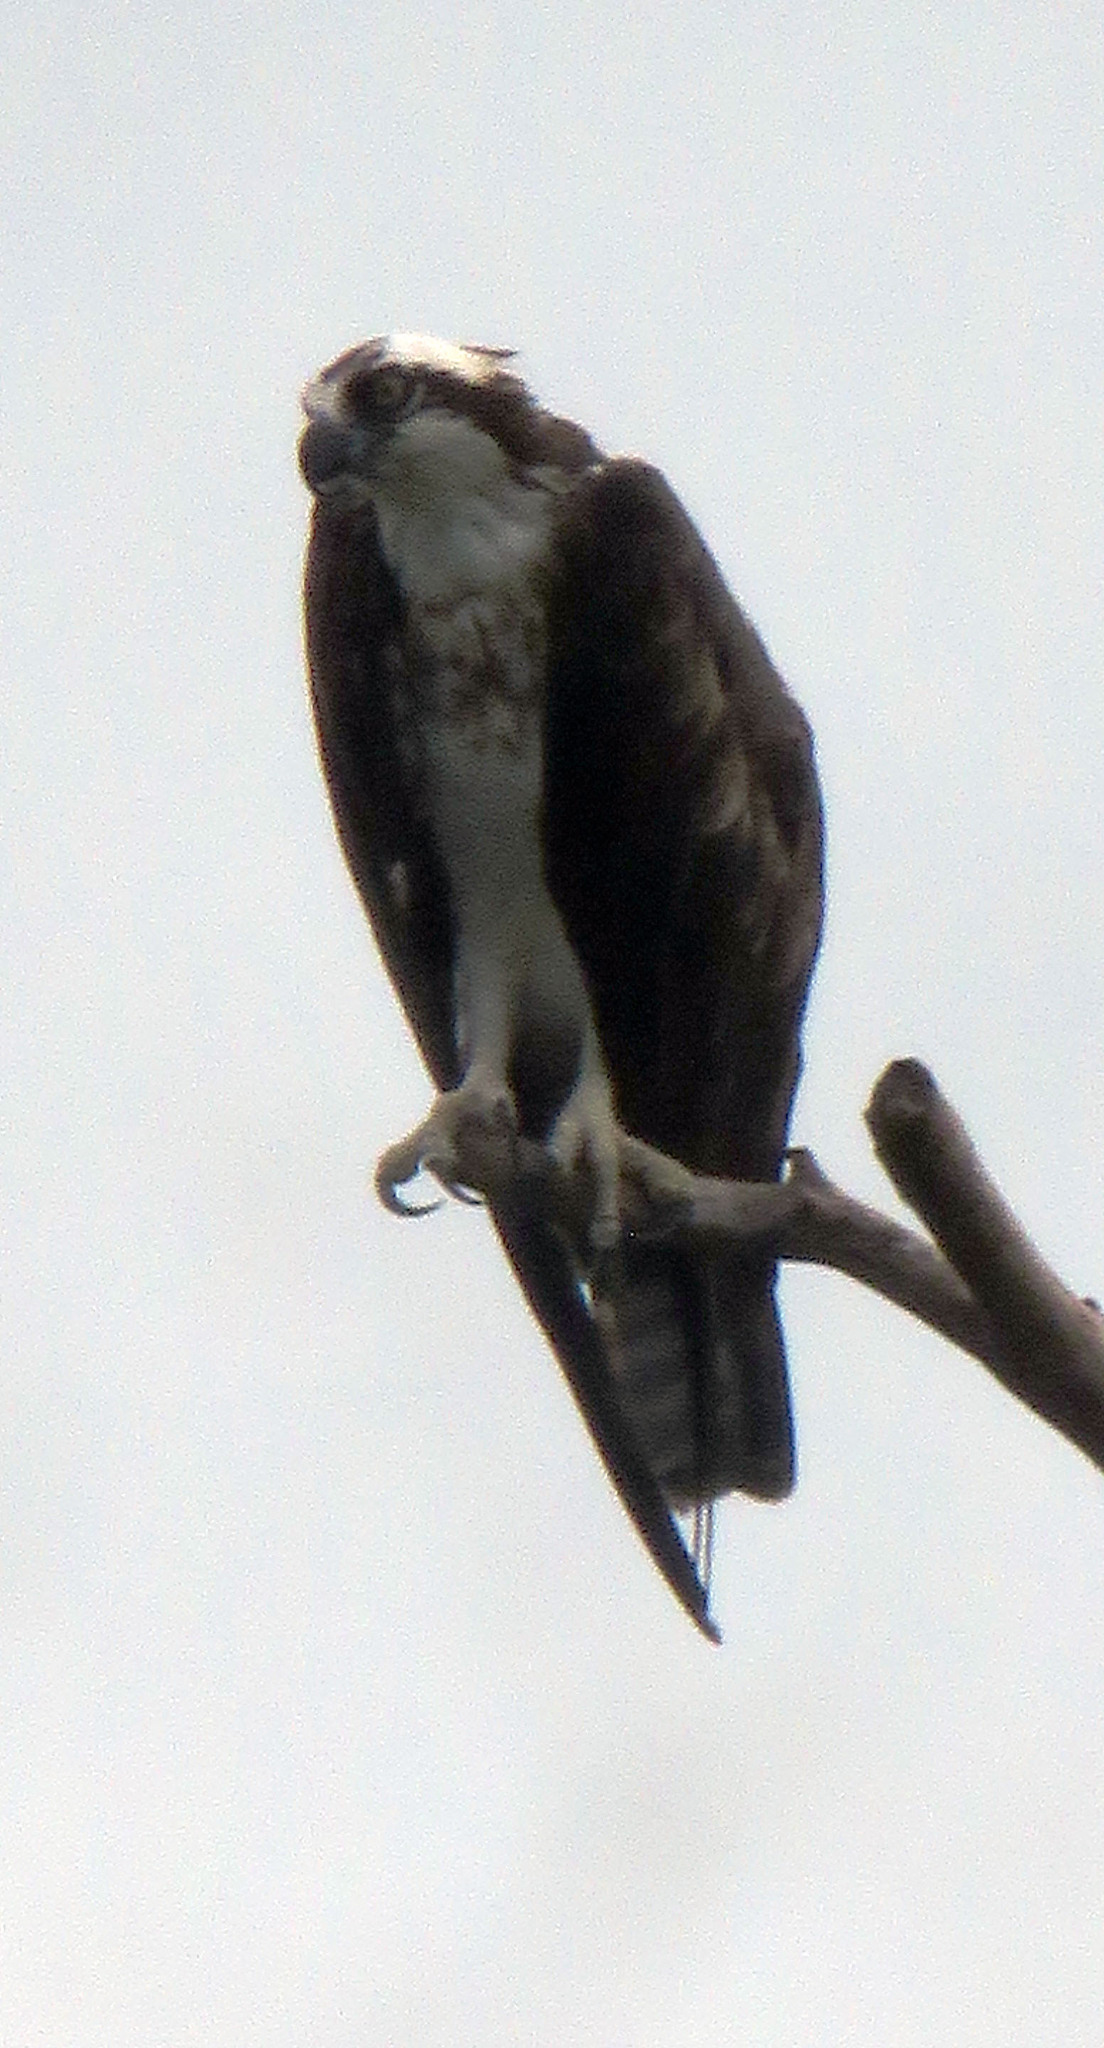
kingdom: Animalia
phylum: Chordata
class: Aves
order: Accipitriformes
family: Pandionidae
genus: Pandion
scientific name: Pandion haliaetus
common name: Osprey
